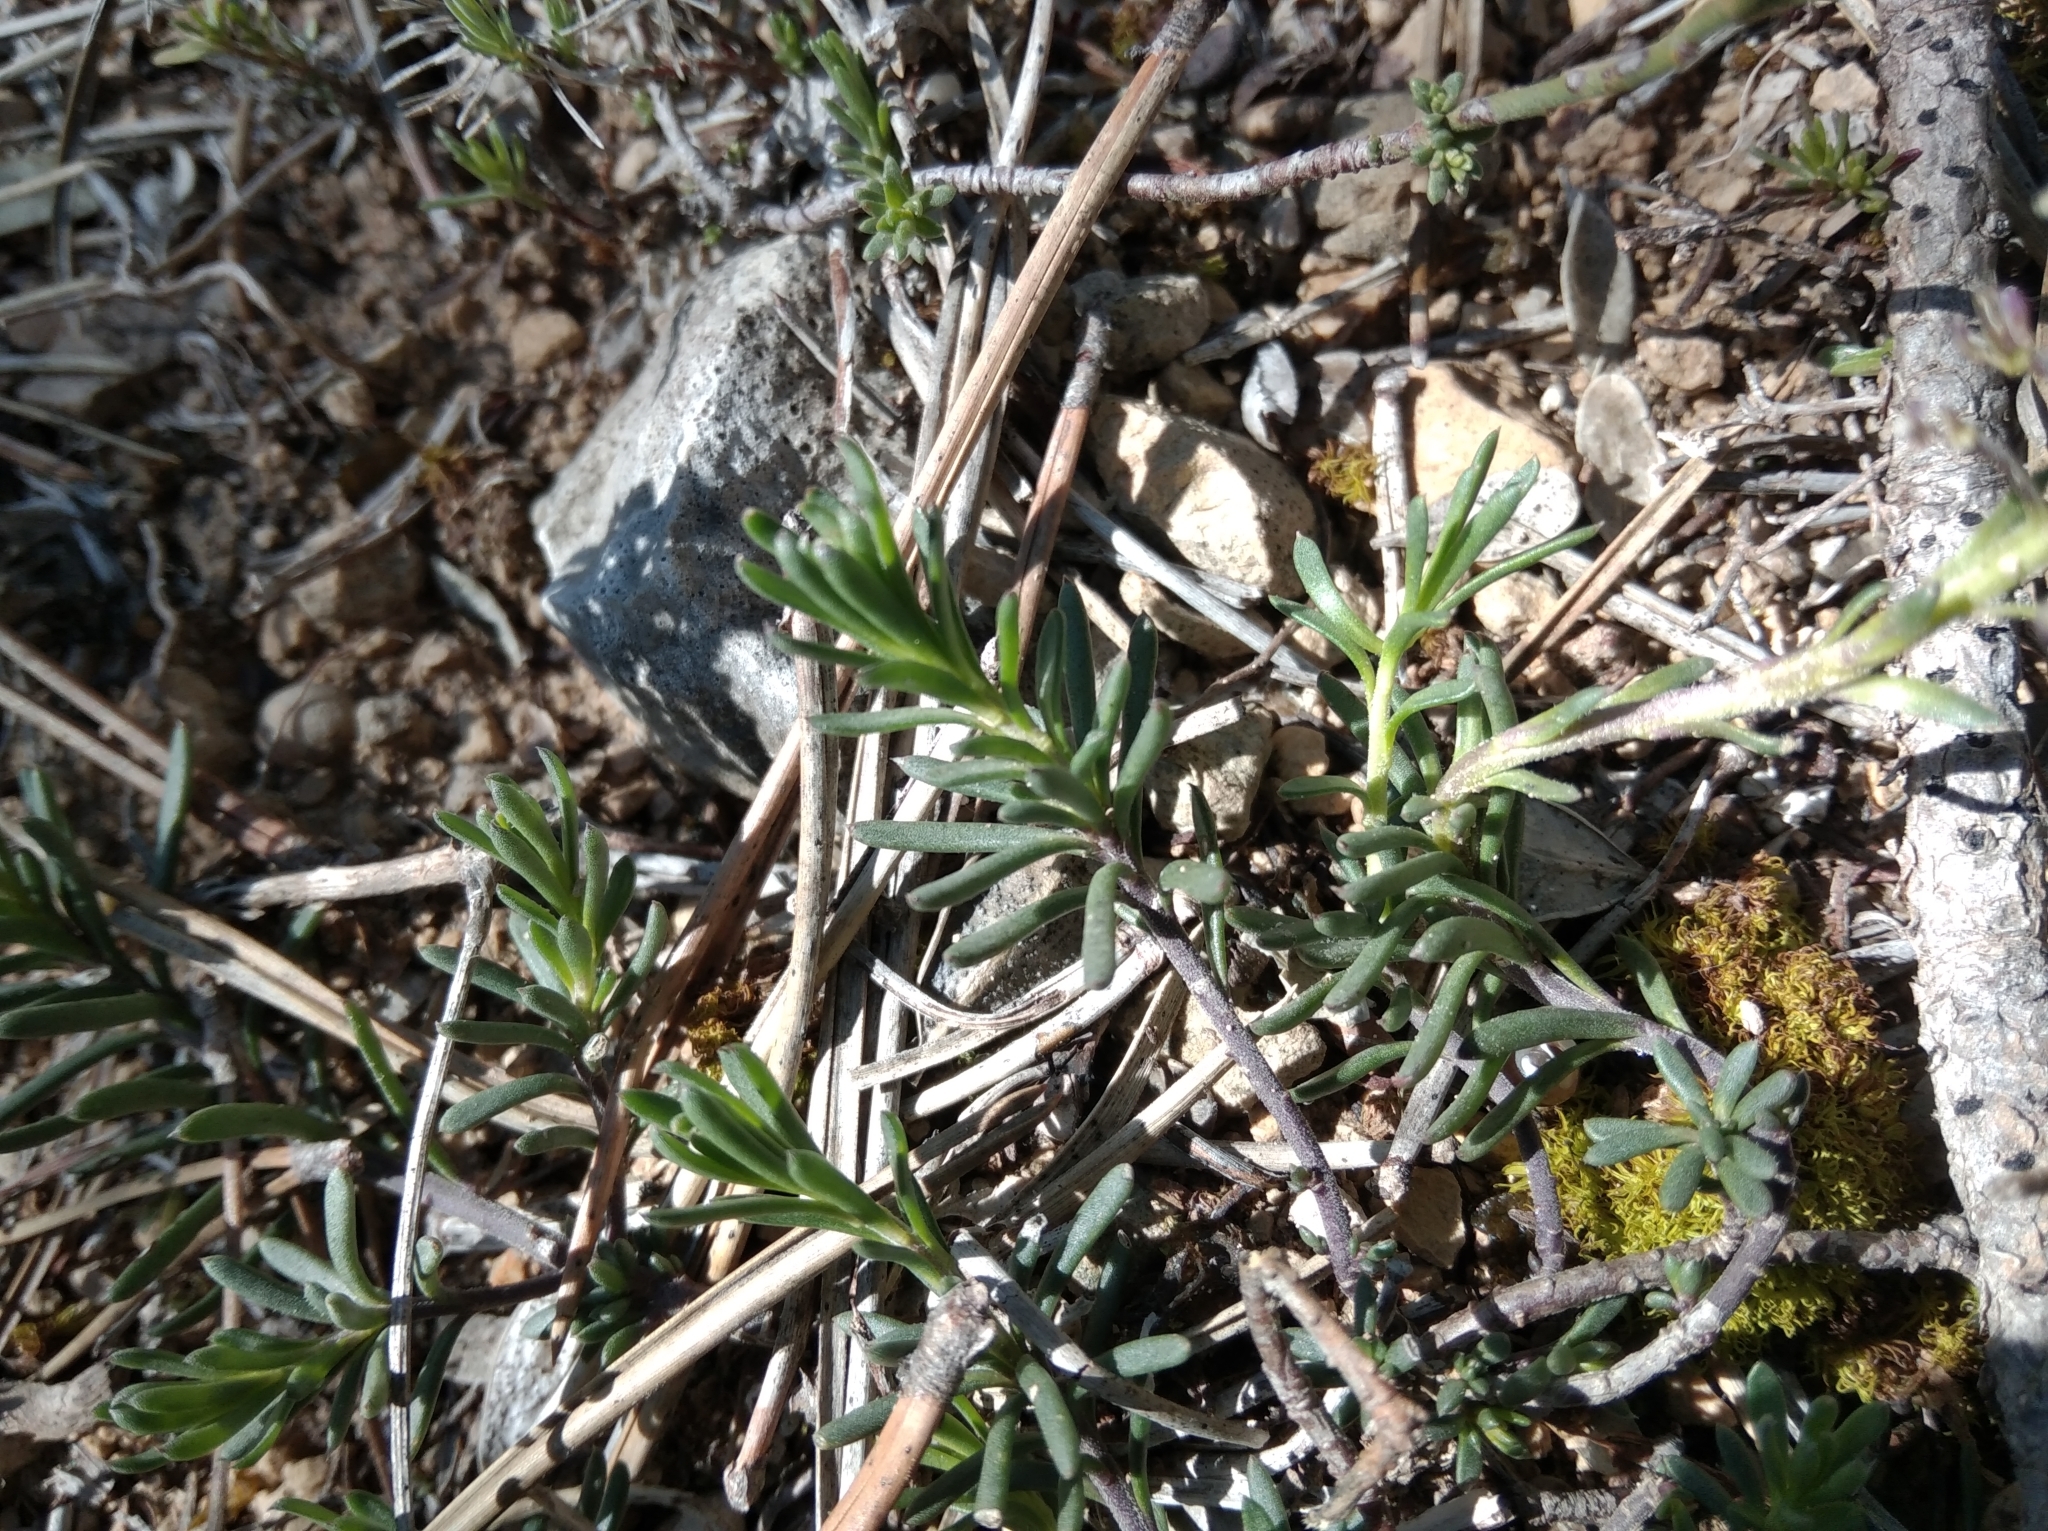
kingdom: Plantae
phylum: Tracheophyta
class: Magnoliopsida
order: Brassicales
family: Brassicaceae
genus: Iberis
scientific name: Iberis saxatilis
